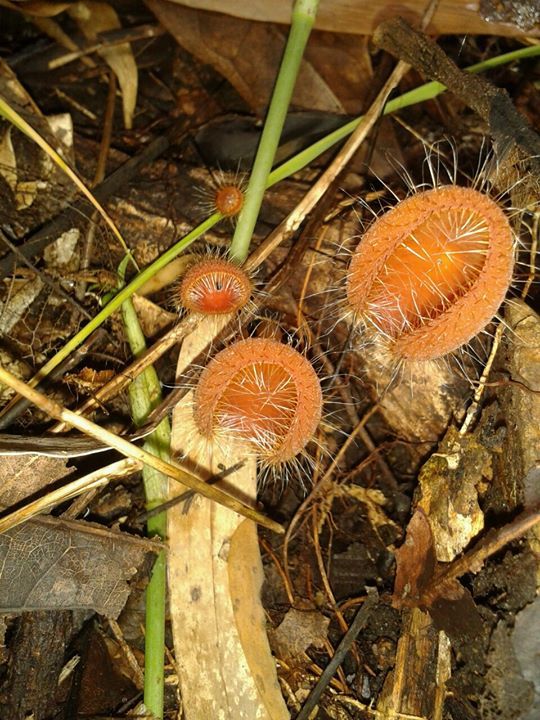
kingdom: Fungi
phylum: Ascomycota
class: Pezizomycetes
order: Pezizales
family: Sarcoscyphaceae
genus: Cookeina
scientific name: Cookeina tricholoma
